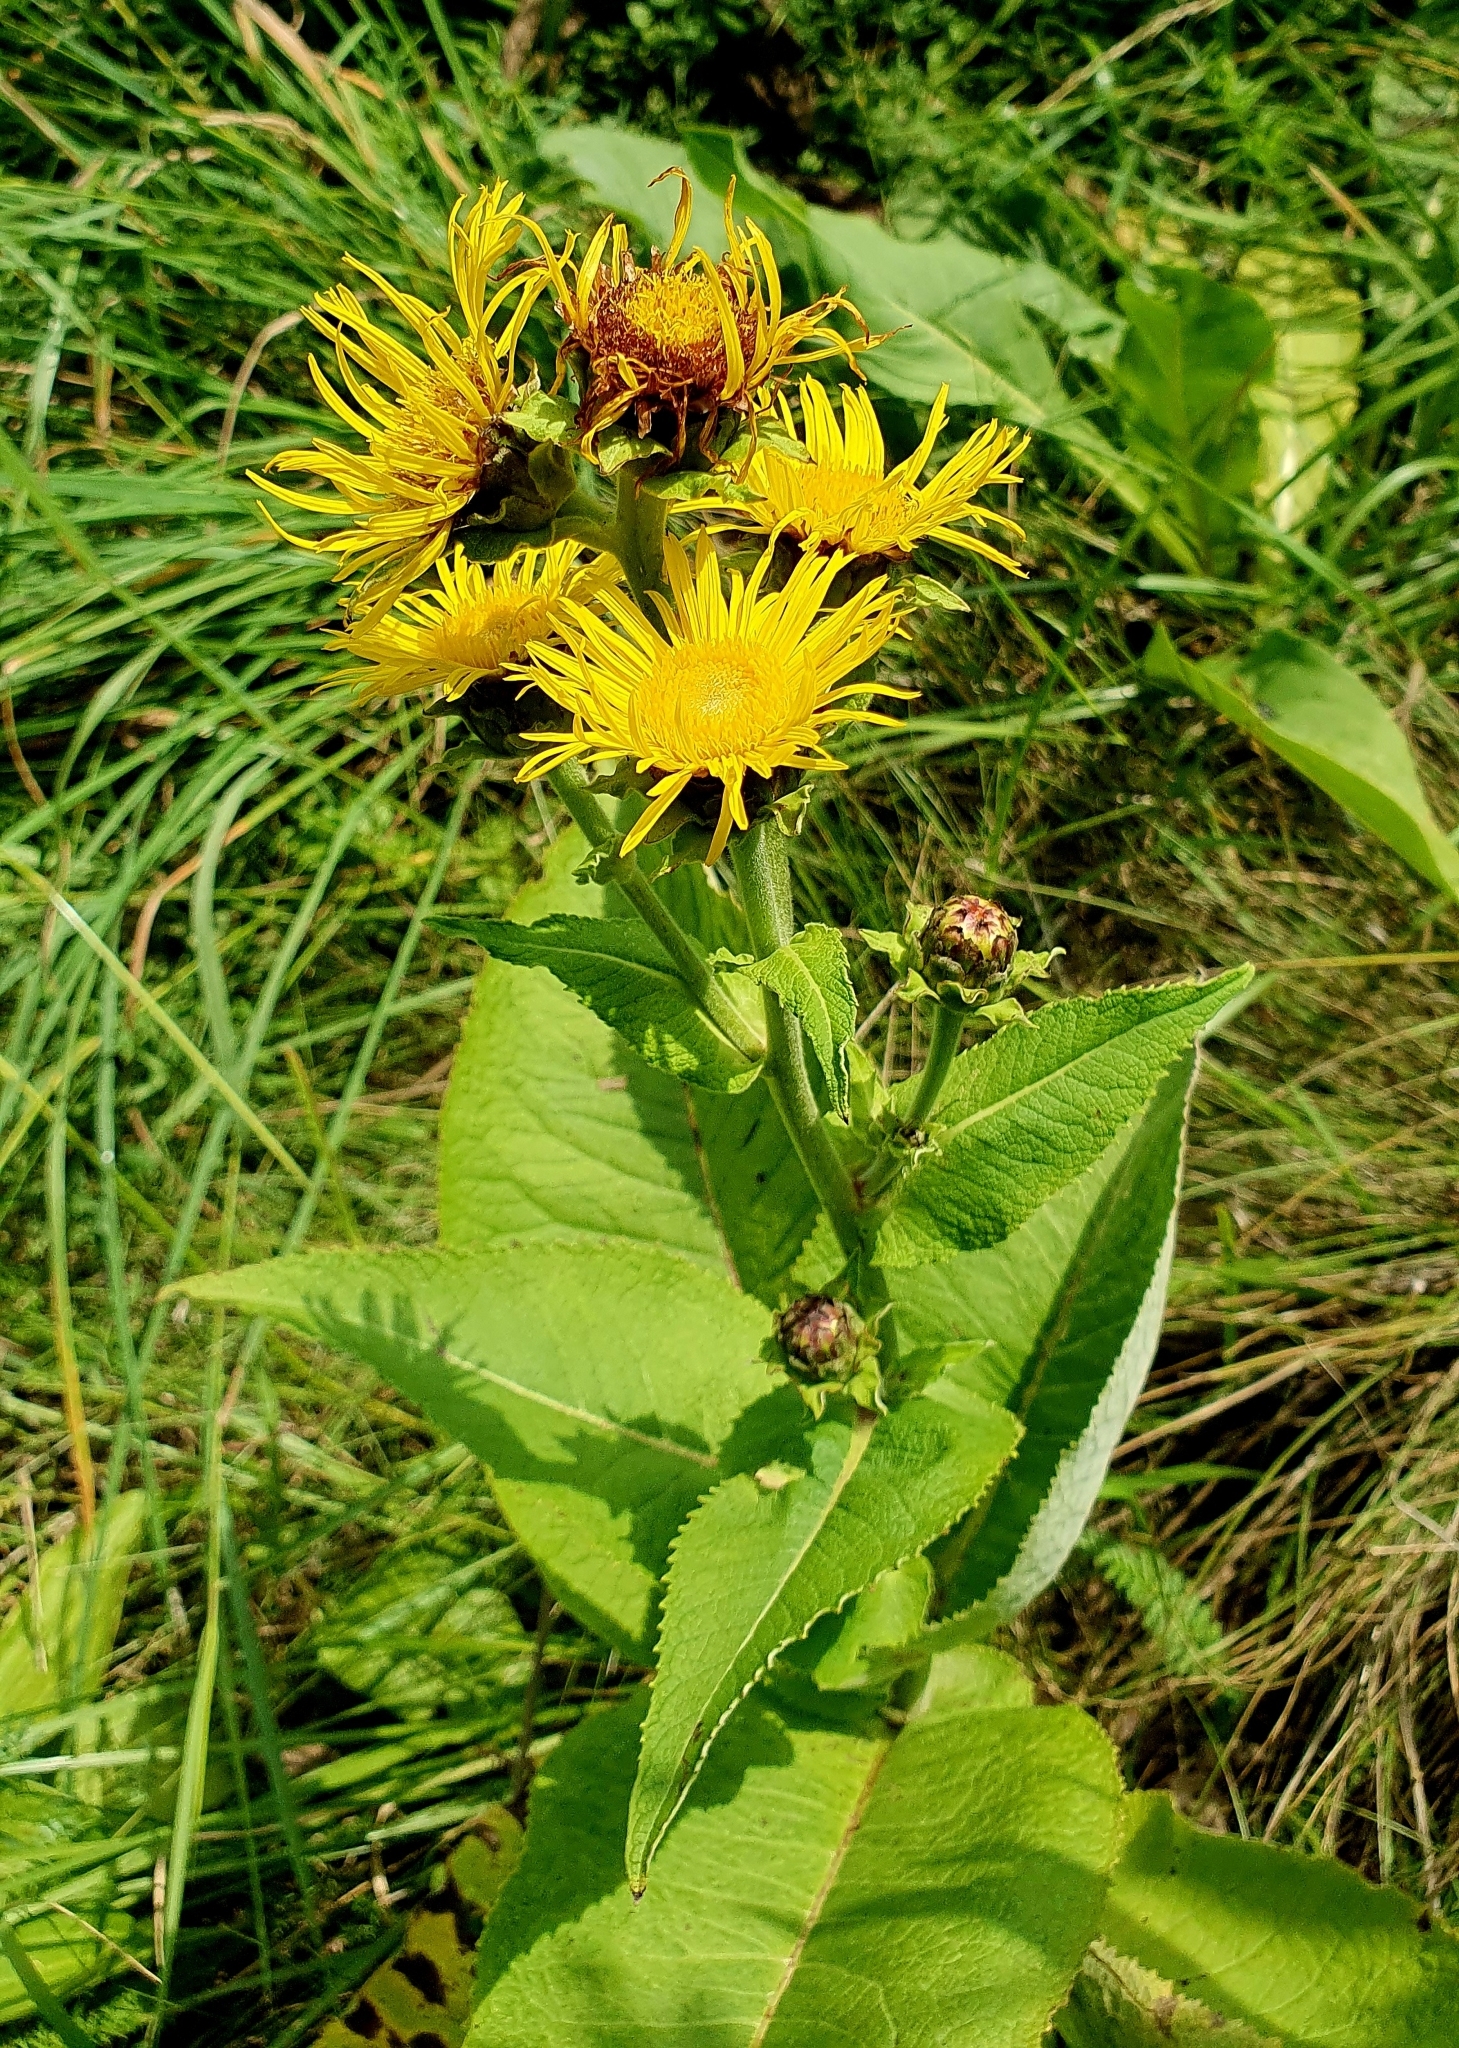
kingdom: Plantae
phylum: Tracheophyta
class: Magnoliopsida
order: Asterales
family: Asteraceae
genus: Inula
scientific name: Inula helenium
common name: Elecampane
